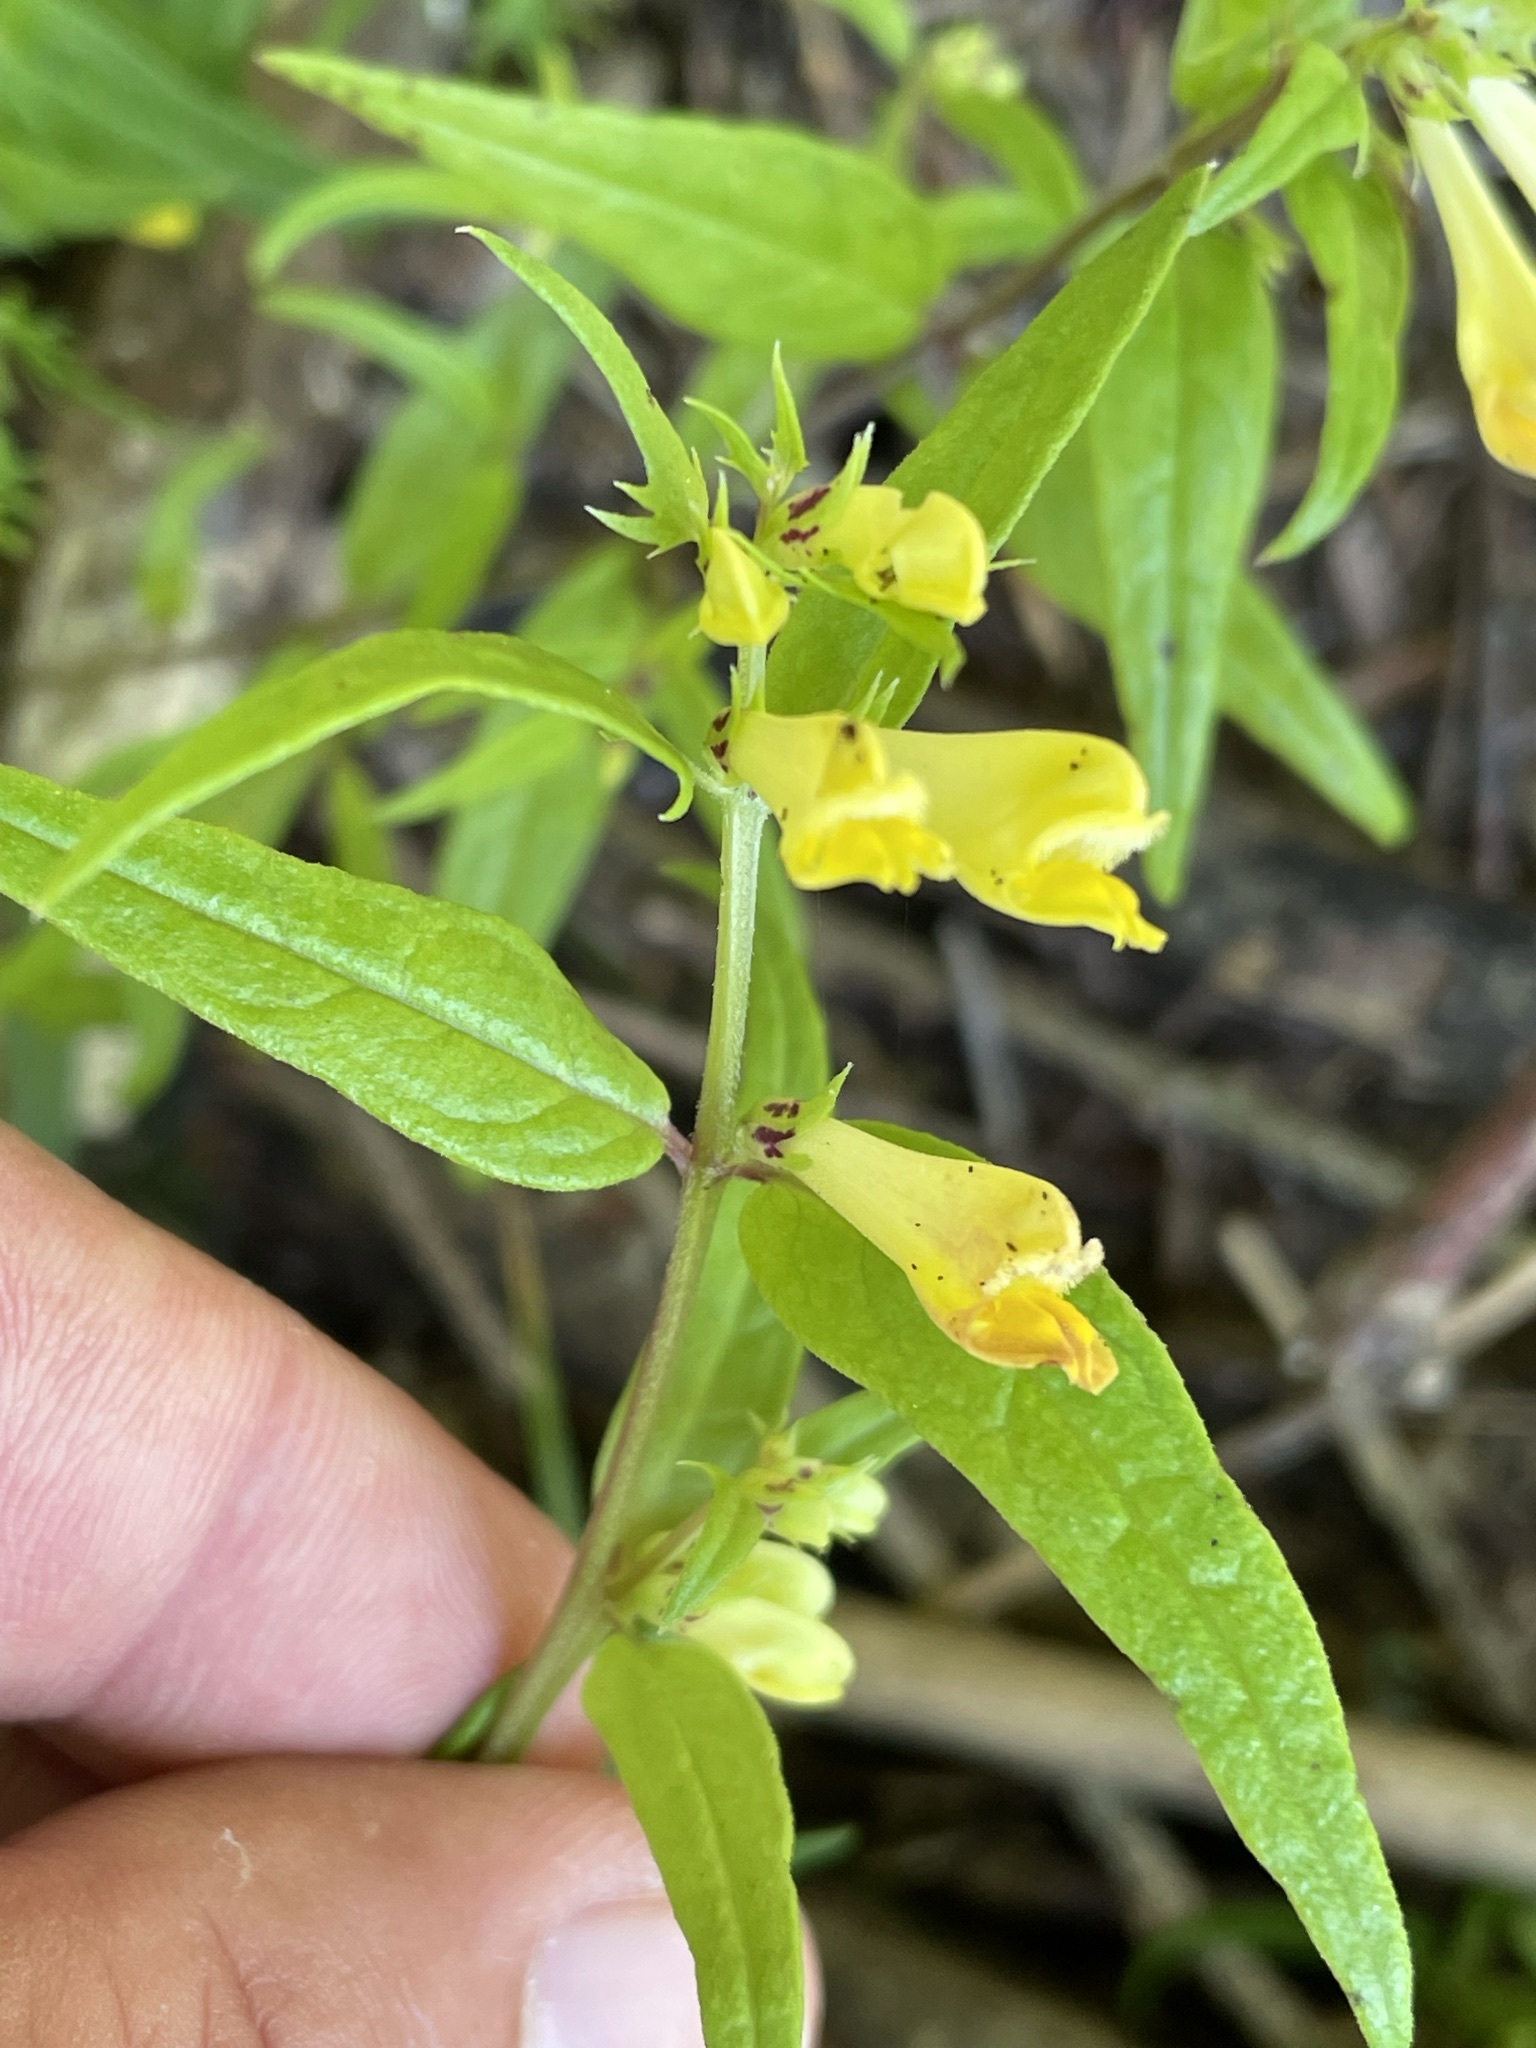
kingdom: Plantae
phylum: Tracheophyta
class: Magnoliopsida
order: Lamiales
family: Orobanchaceae
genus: Melampyrum
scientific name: Melampyrum pratense
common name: Common cow-wheat
